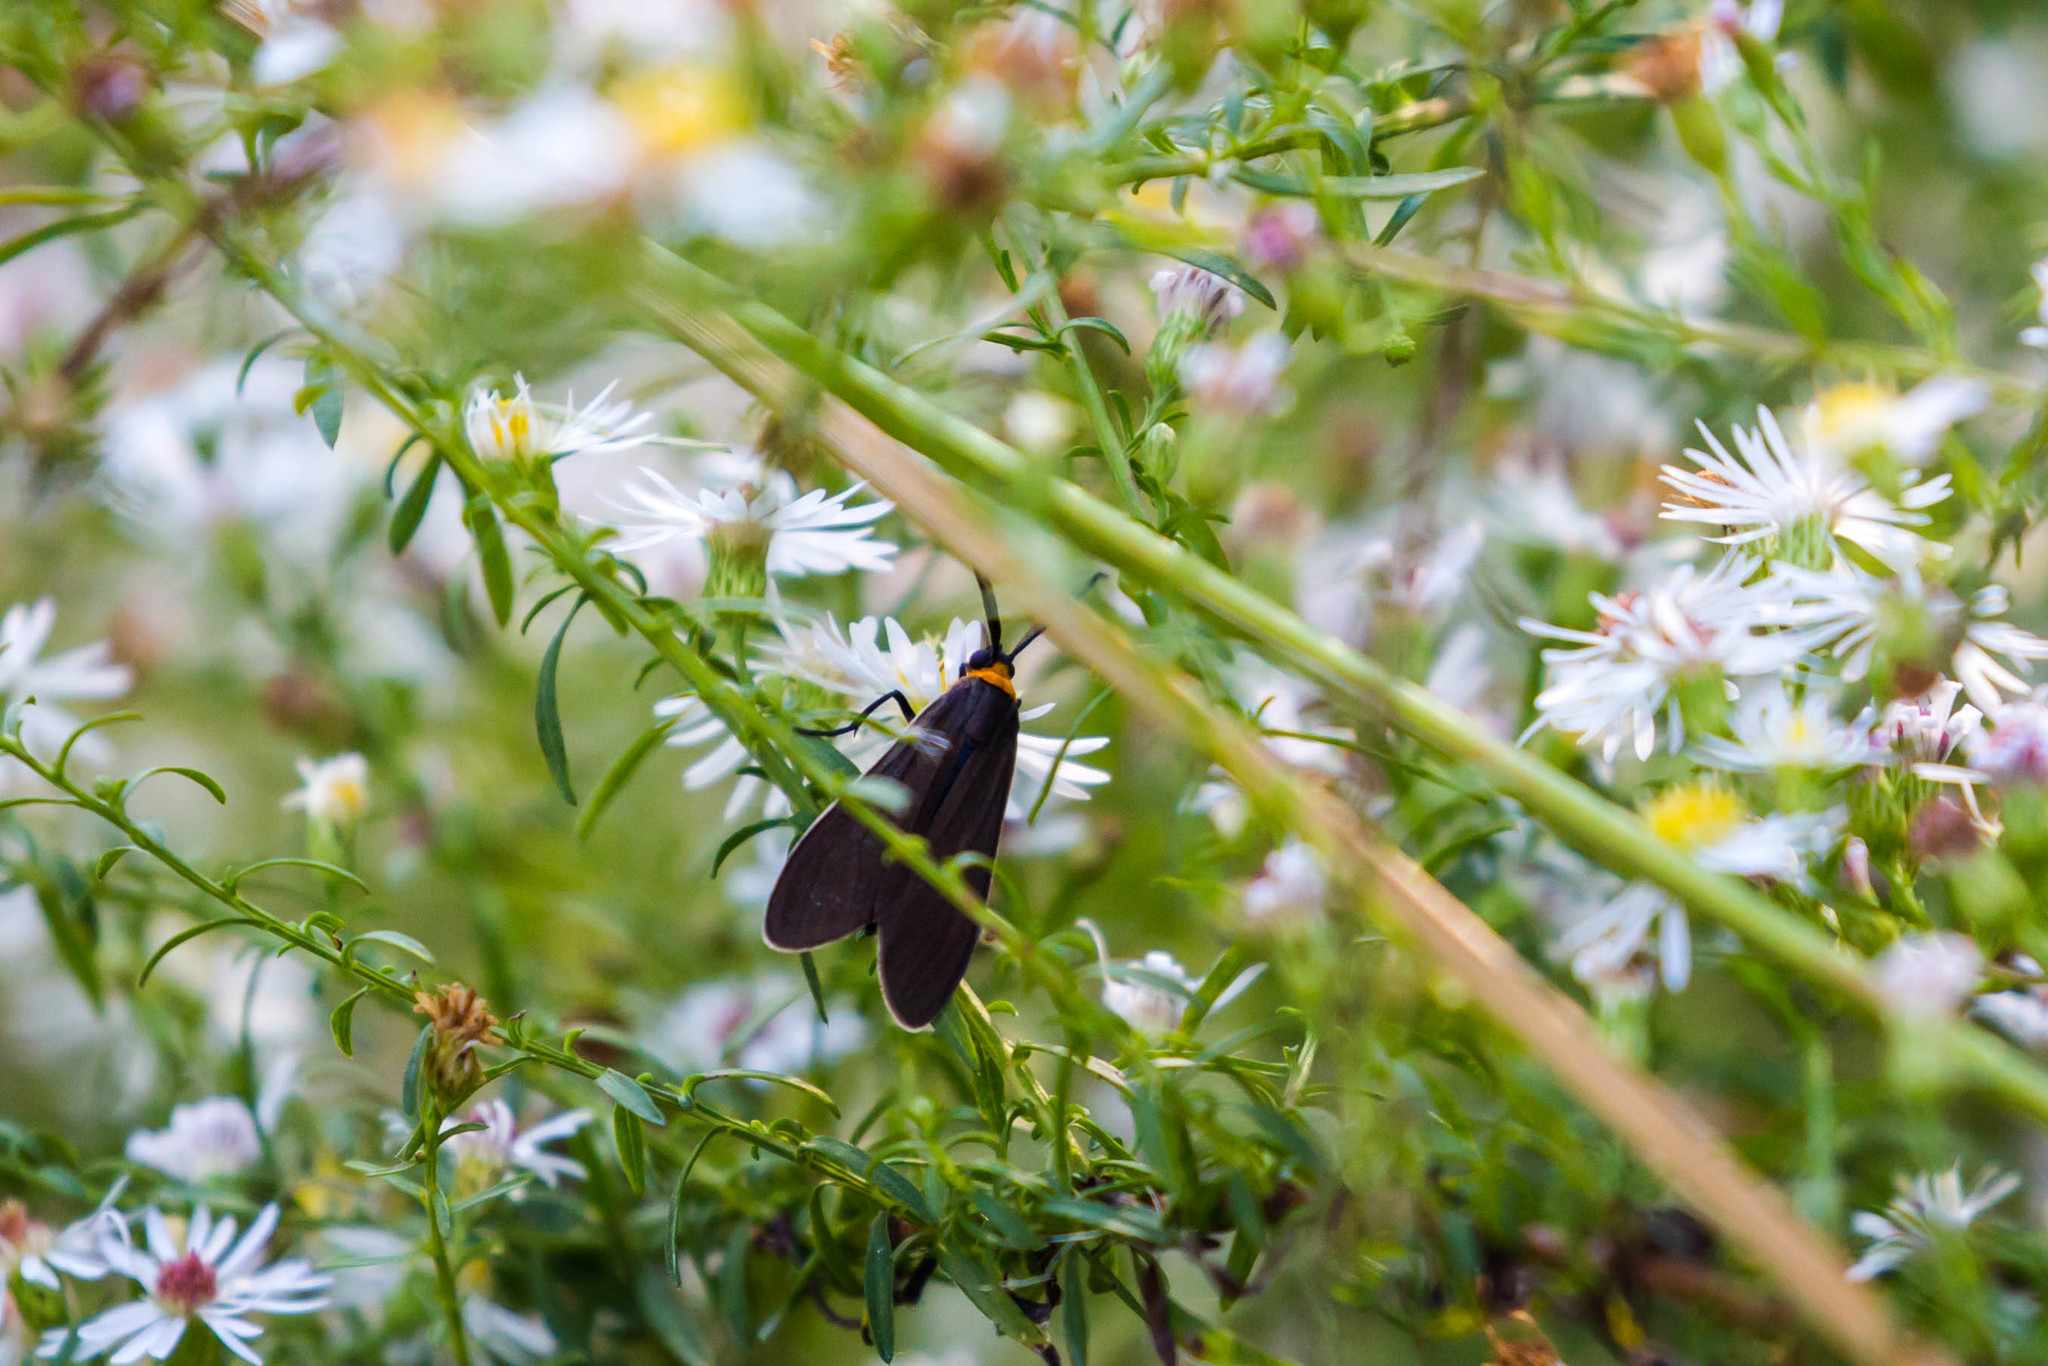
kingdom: Animalia
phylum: Arthropoda
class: Insecta
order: Lepidoptera
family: Erebidae
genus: Cisseps
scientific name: Cisseps fulvicollis
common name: Yellow-collared scape moth
